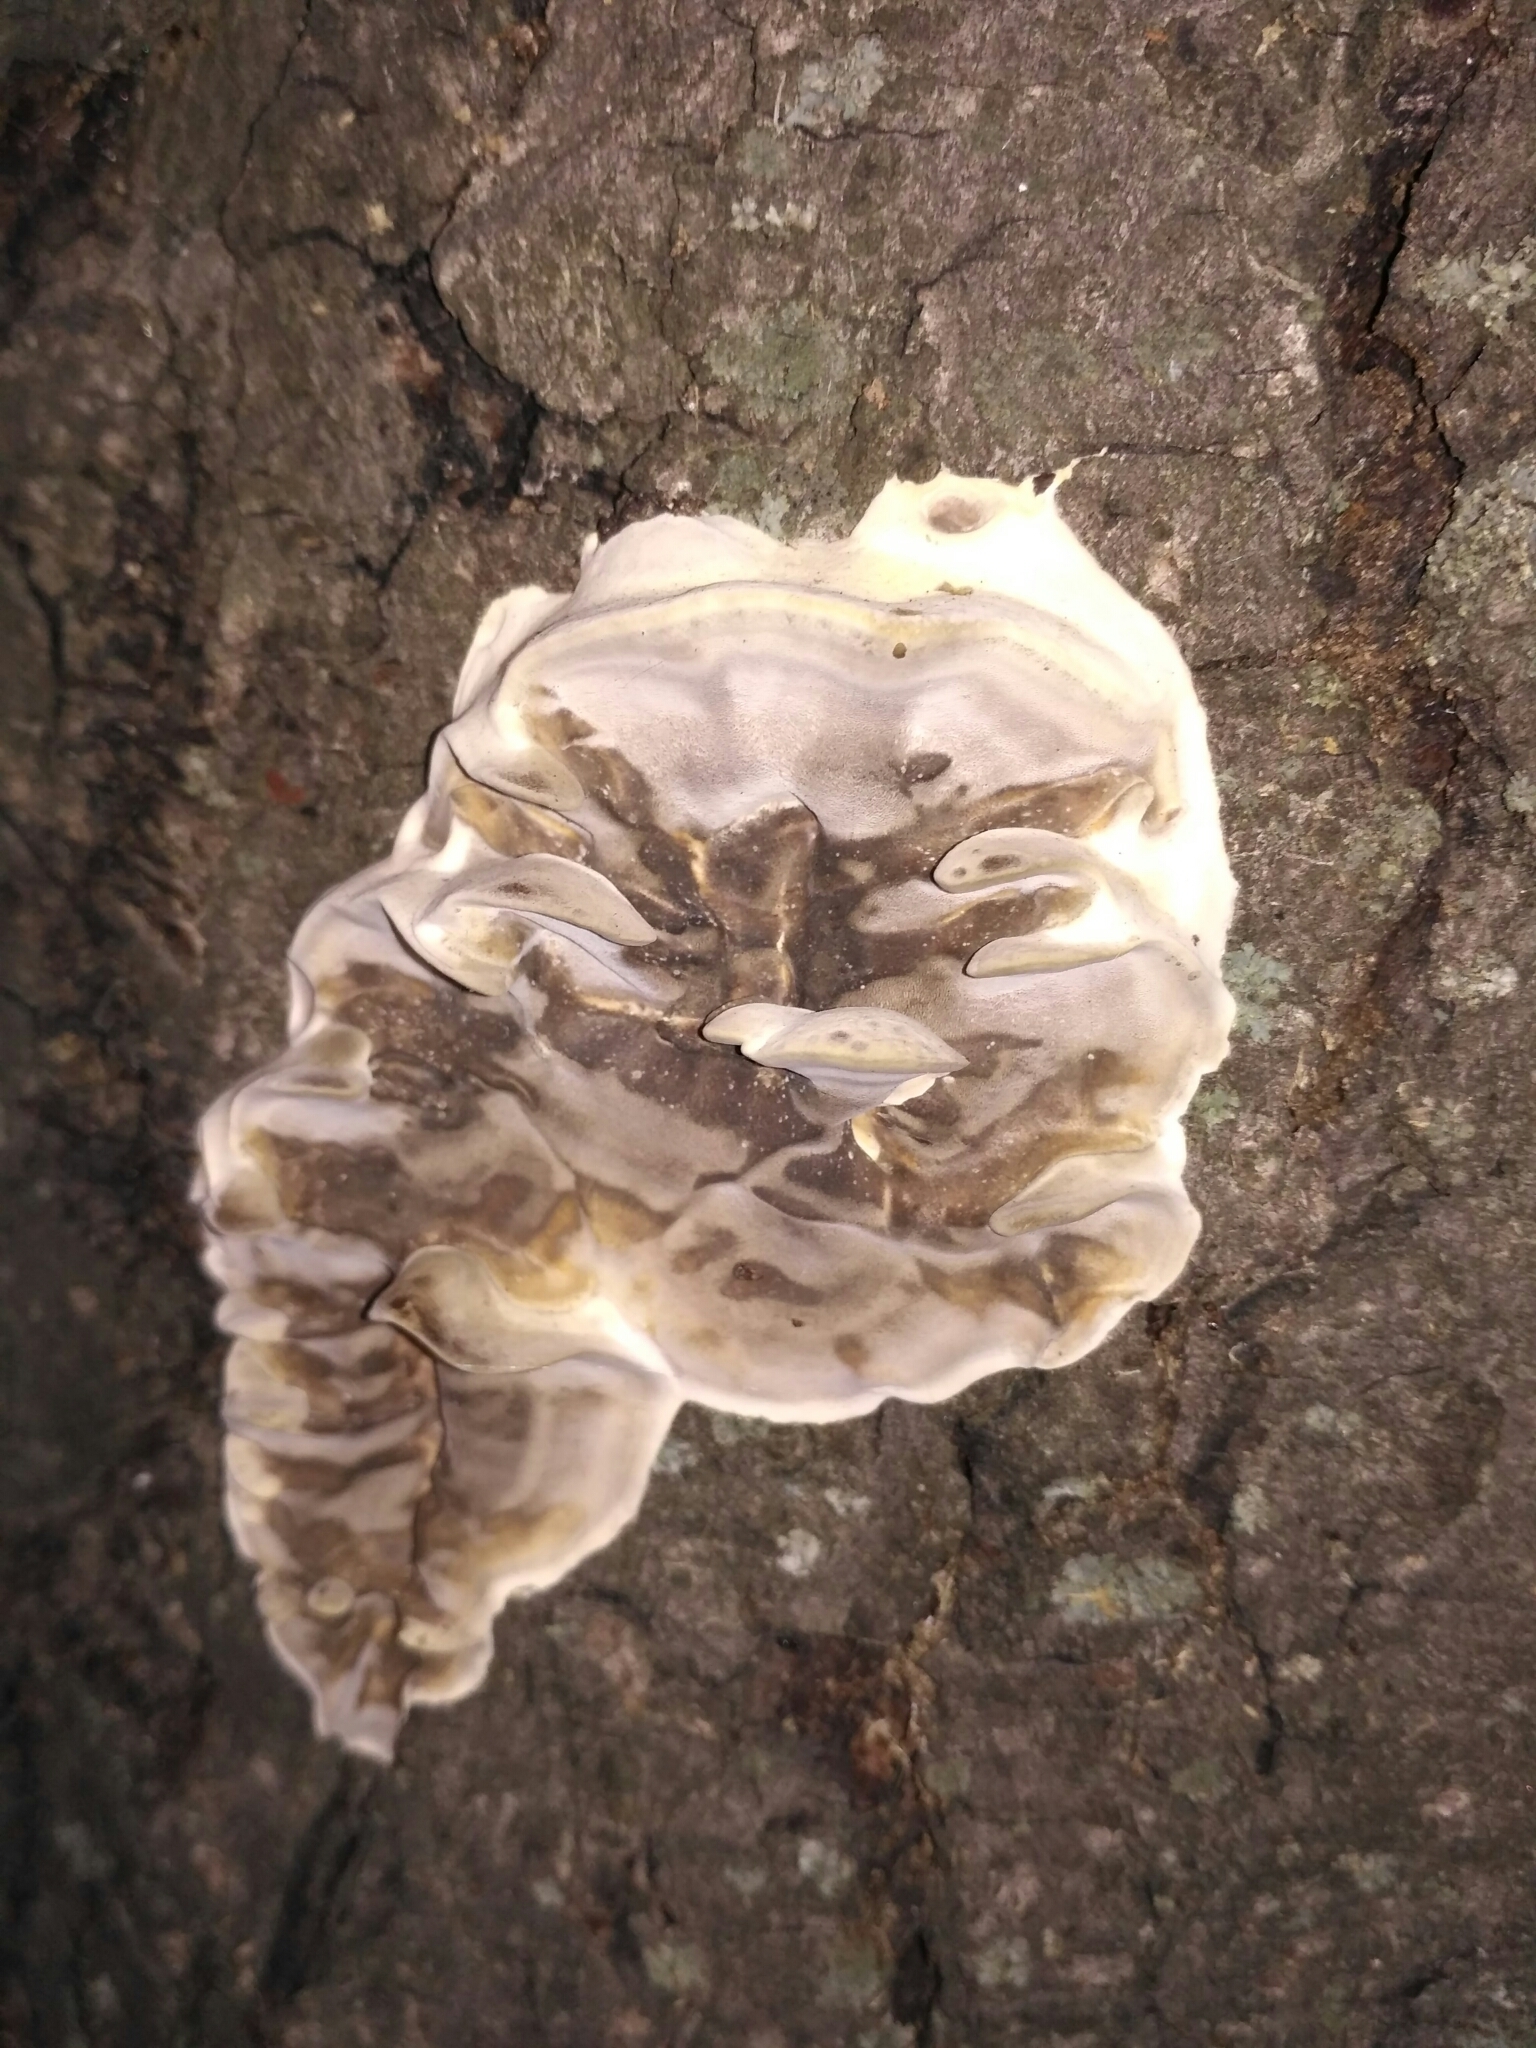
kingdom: Fungi
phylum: Basidiomycota
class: Agaricomycetes
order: Polyporales
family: Phanerochaetaceae
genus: Bjerkandera
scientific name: Bjerkandera adusta
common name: Smoky bracket
